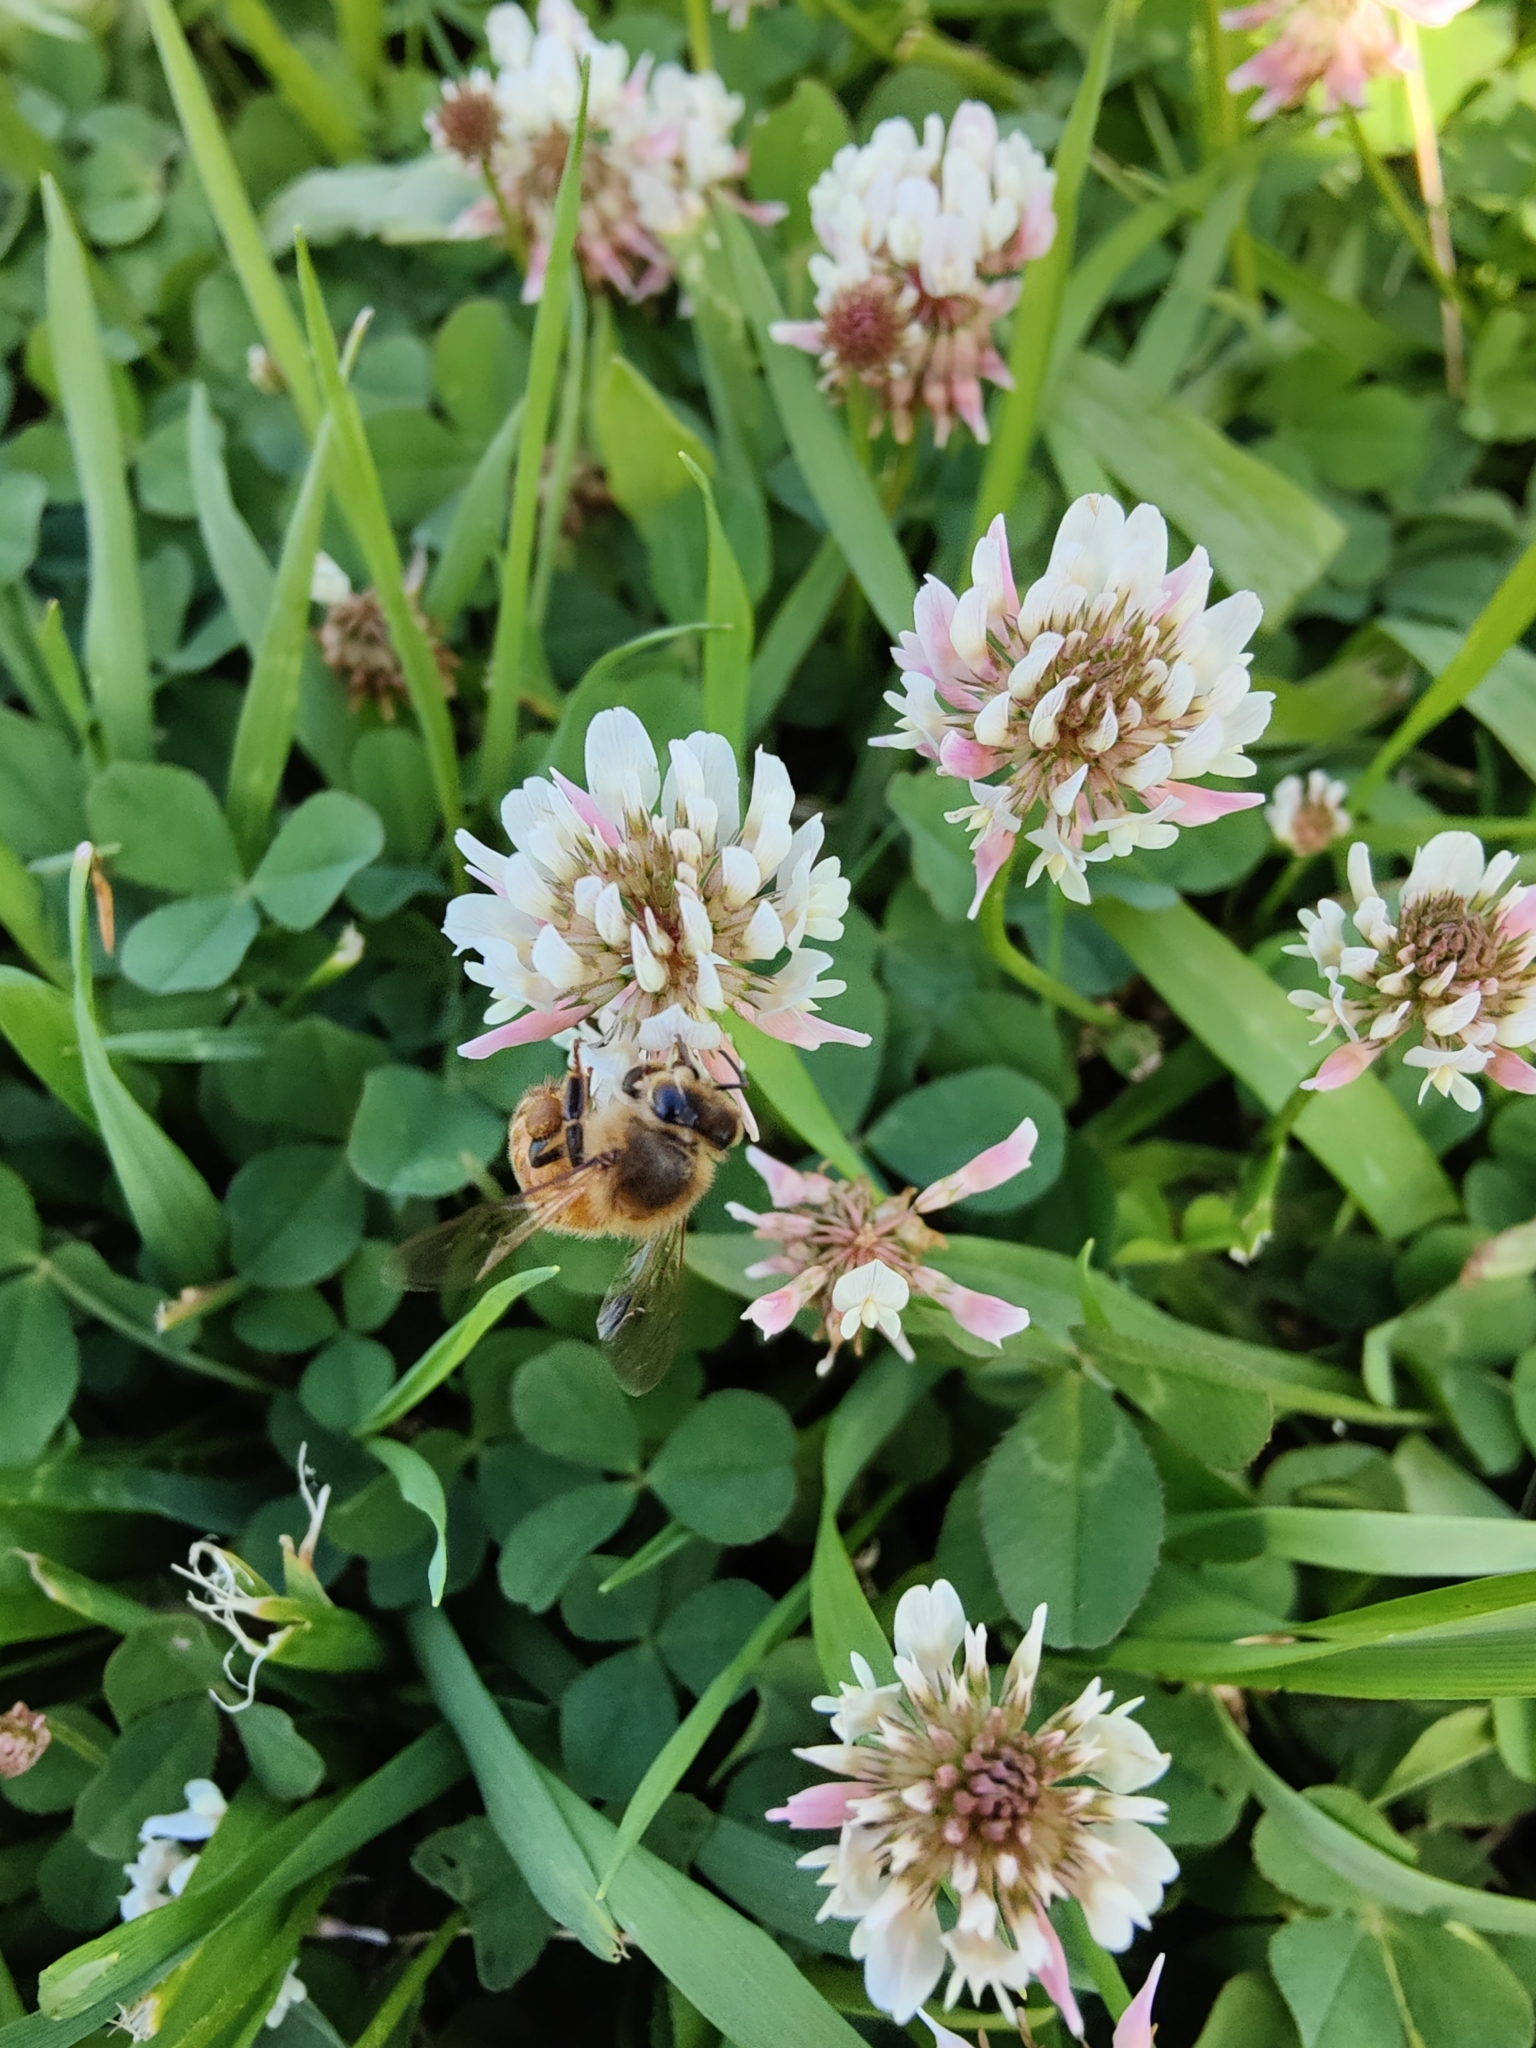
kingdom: Animalia
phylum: Arthropoda
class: Insecta
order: Hymenoptera
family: Apidae
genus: Apis
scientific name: Apis mellifera
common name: Honey bee
